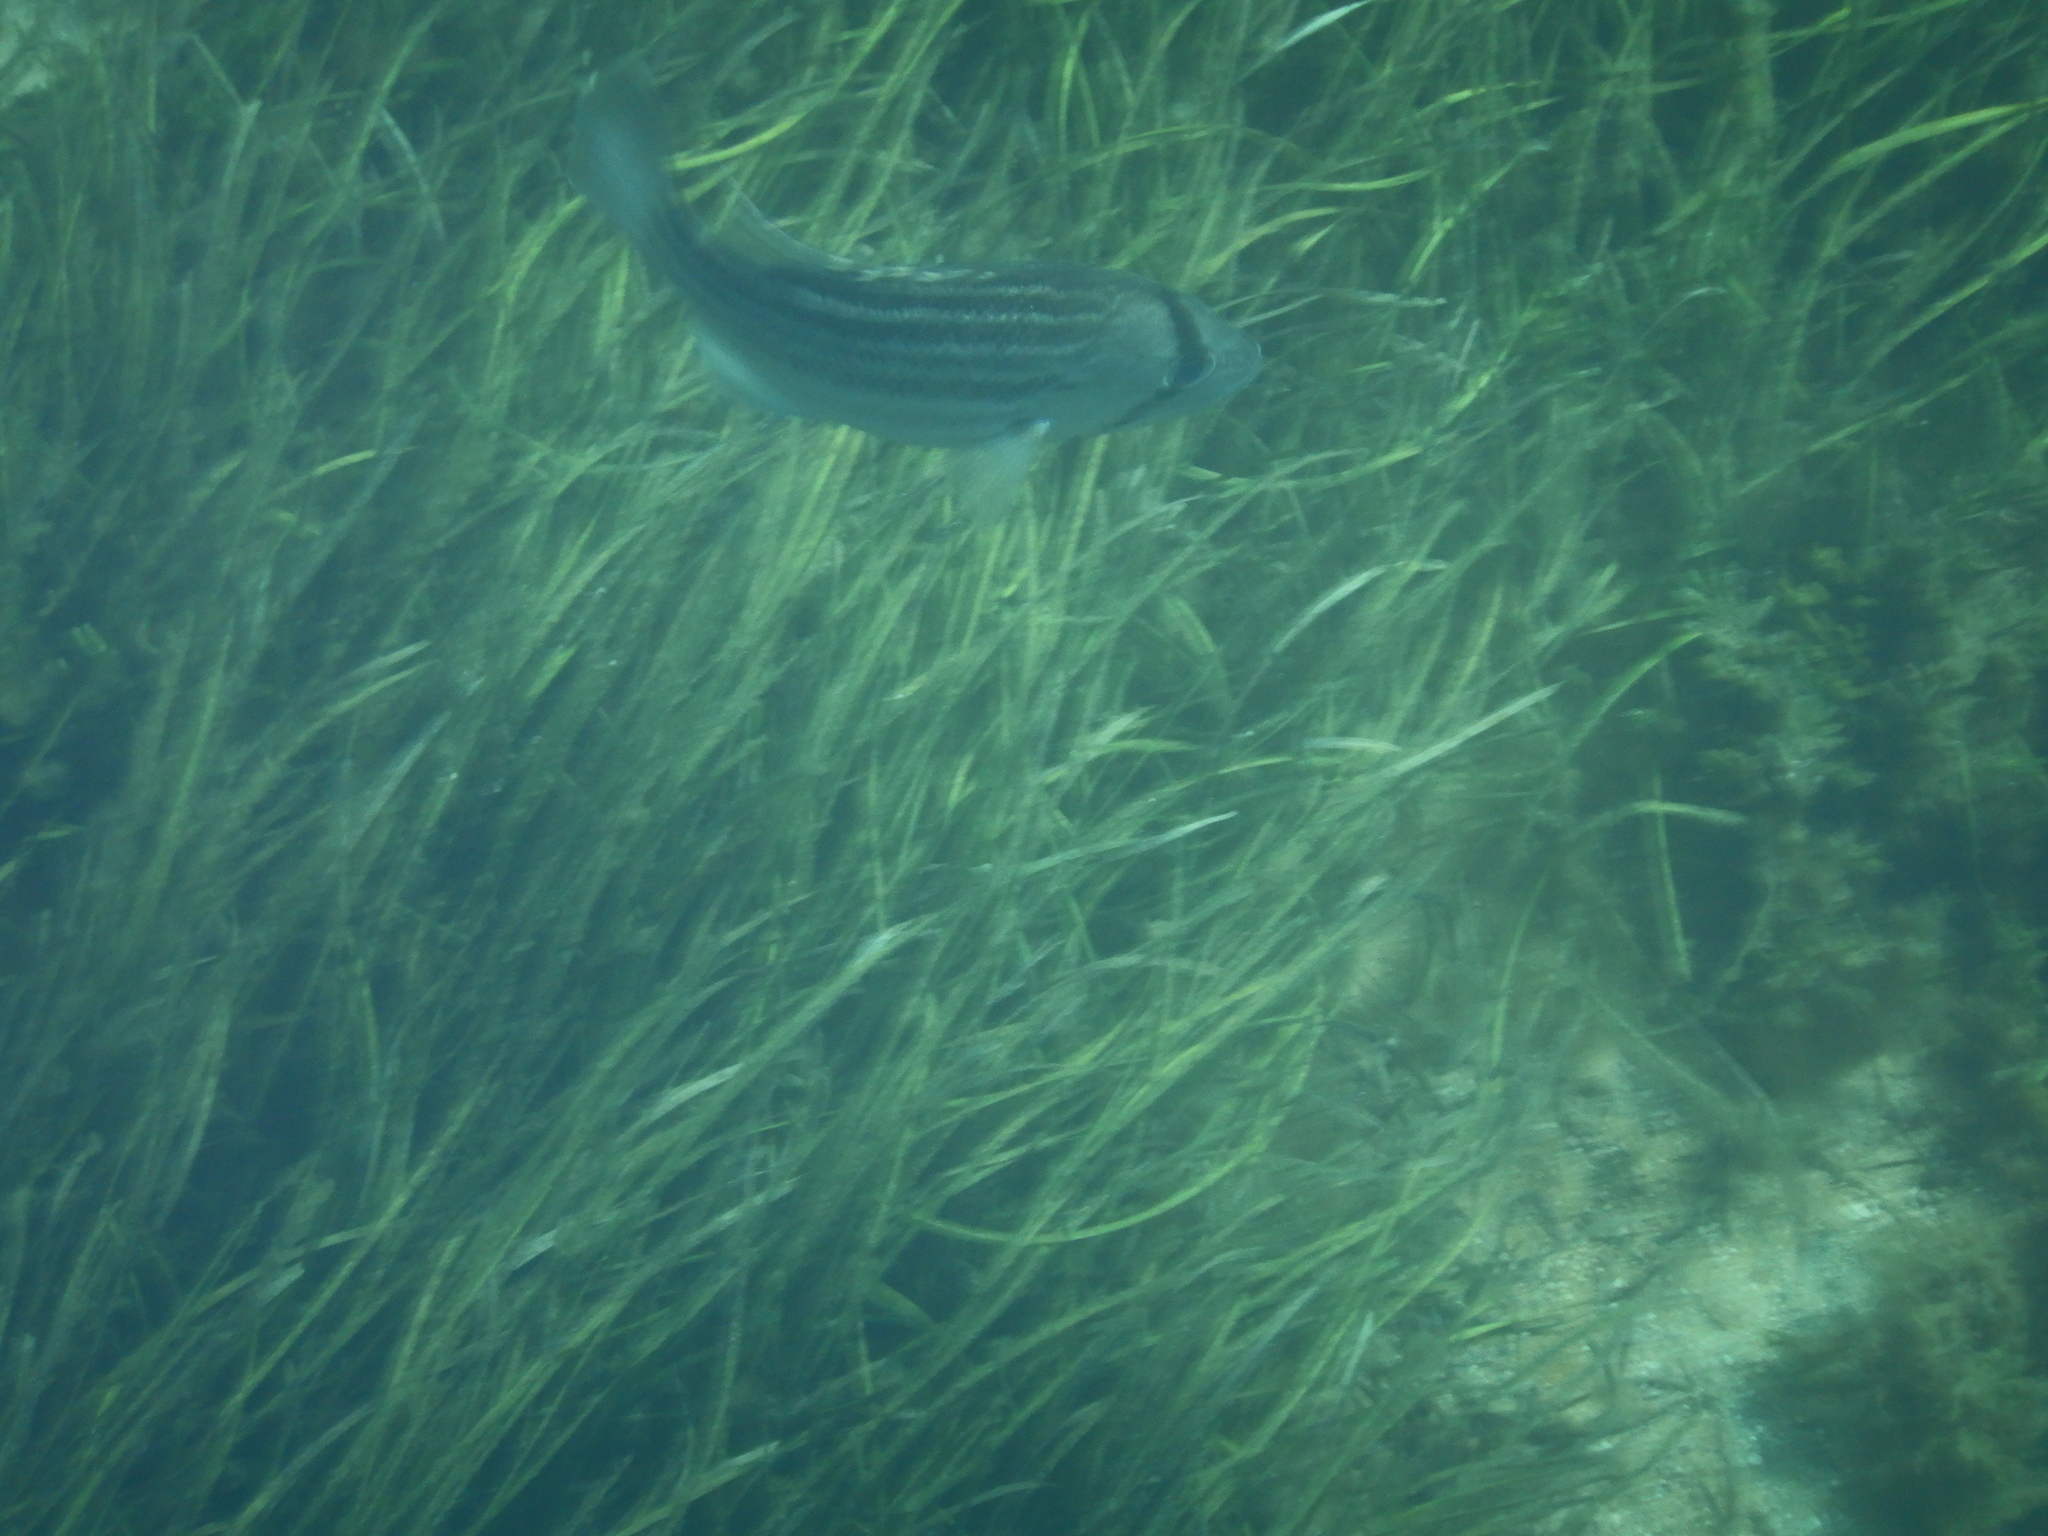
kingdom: Animalia
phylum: Chordata
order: Perciformes
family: Glaucosomatidae
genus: Glaucosoma
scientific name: Glaucosoma hebraicum
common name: West australian dhufish
